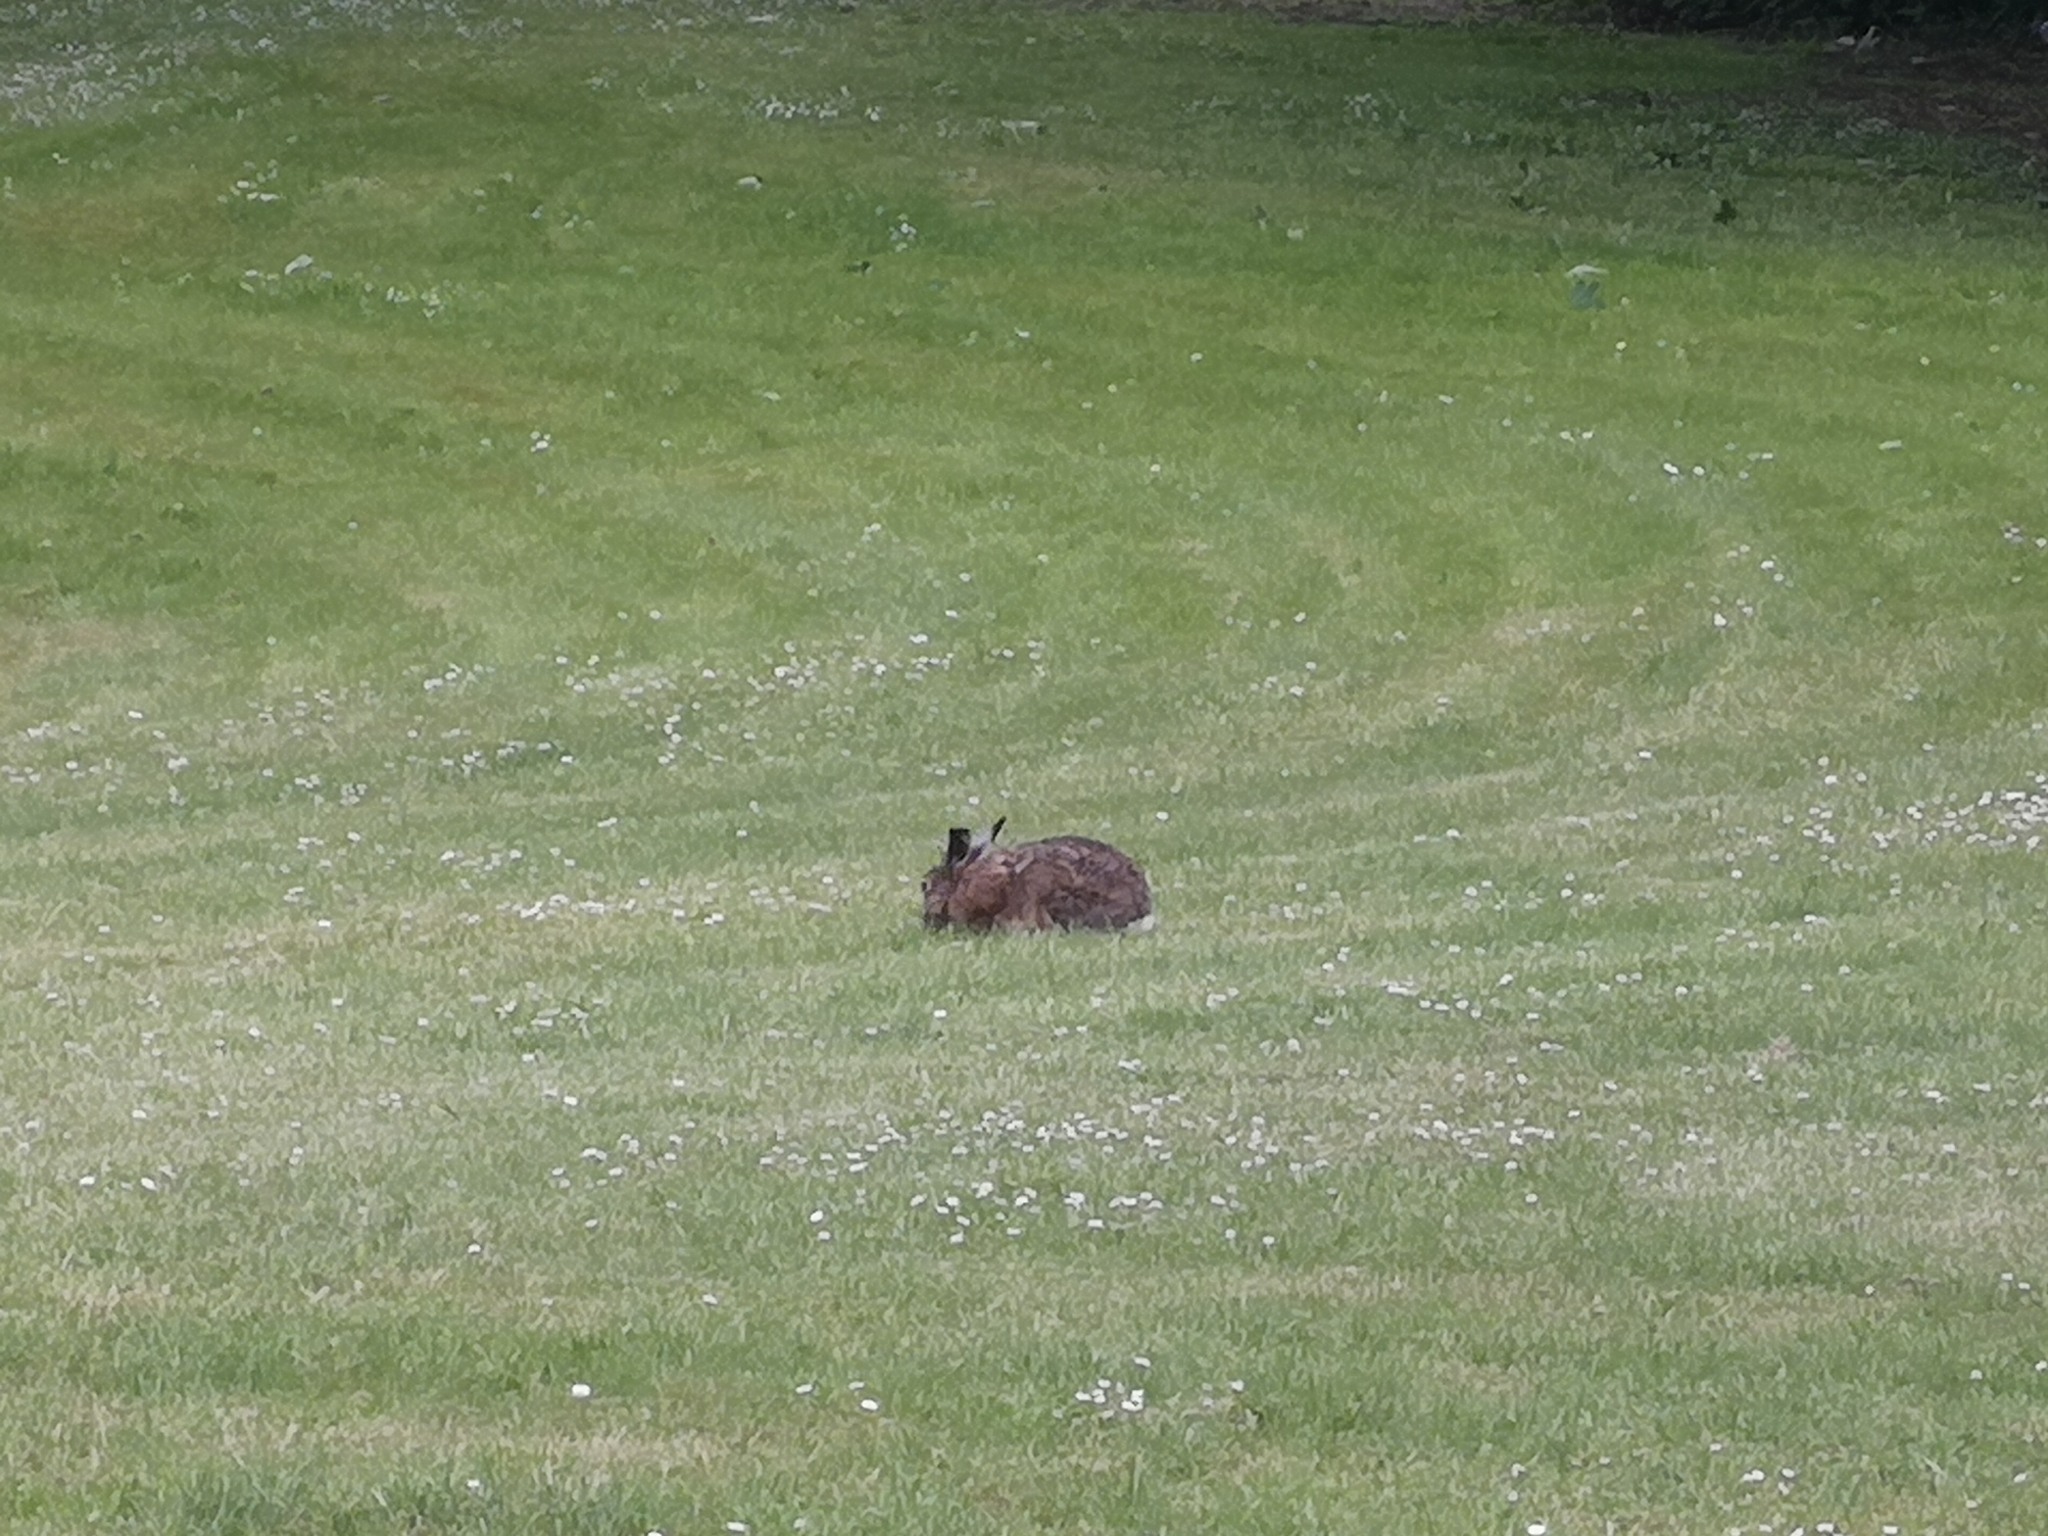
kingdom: Animalia
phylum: Chordata
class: Mammalia
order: Lagomorpha
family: Leporidae
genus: Lepus
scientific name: Lepus europaeus
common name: European hare
